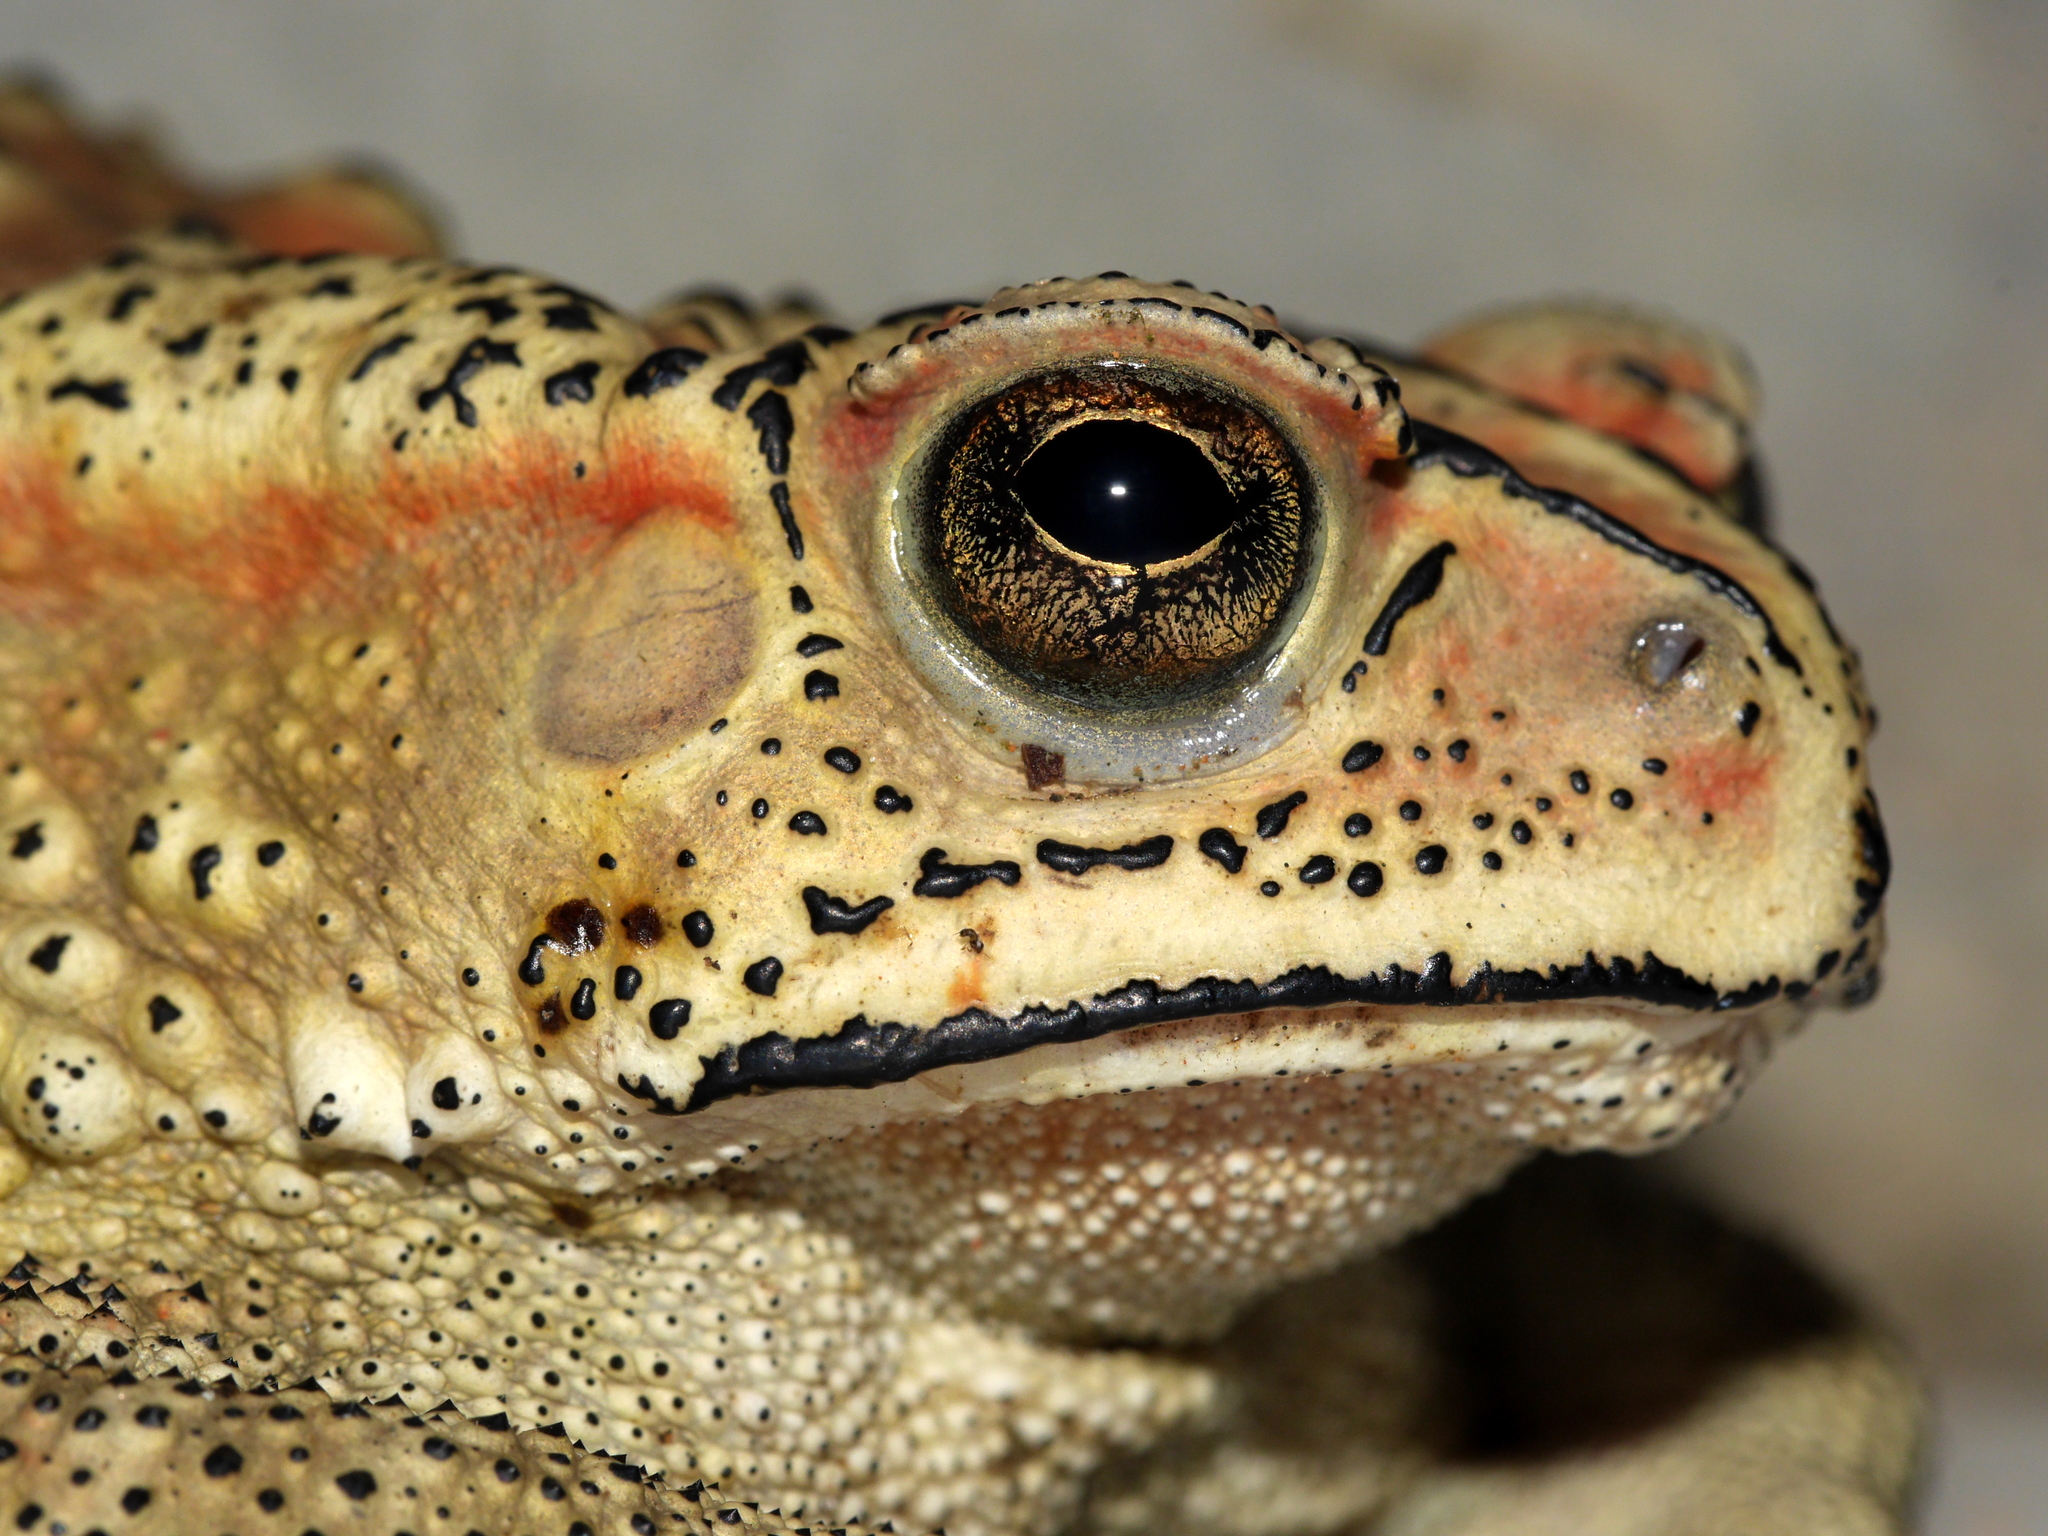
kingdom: Animalia
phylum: Chordata
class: Amphibia
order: Anura
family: Bufonidae
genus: Duttaphrynus
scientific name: Duttaphrynus melanostictus
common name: Common sunda toad
